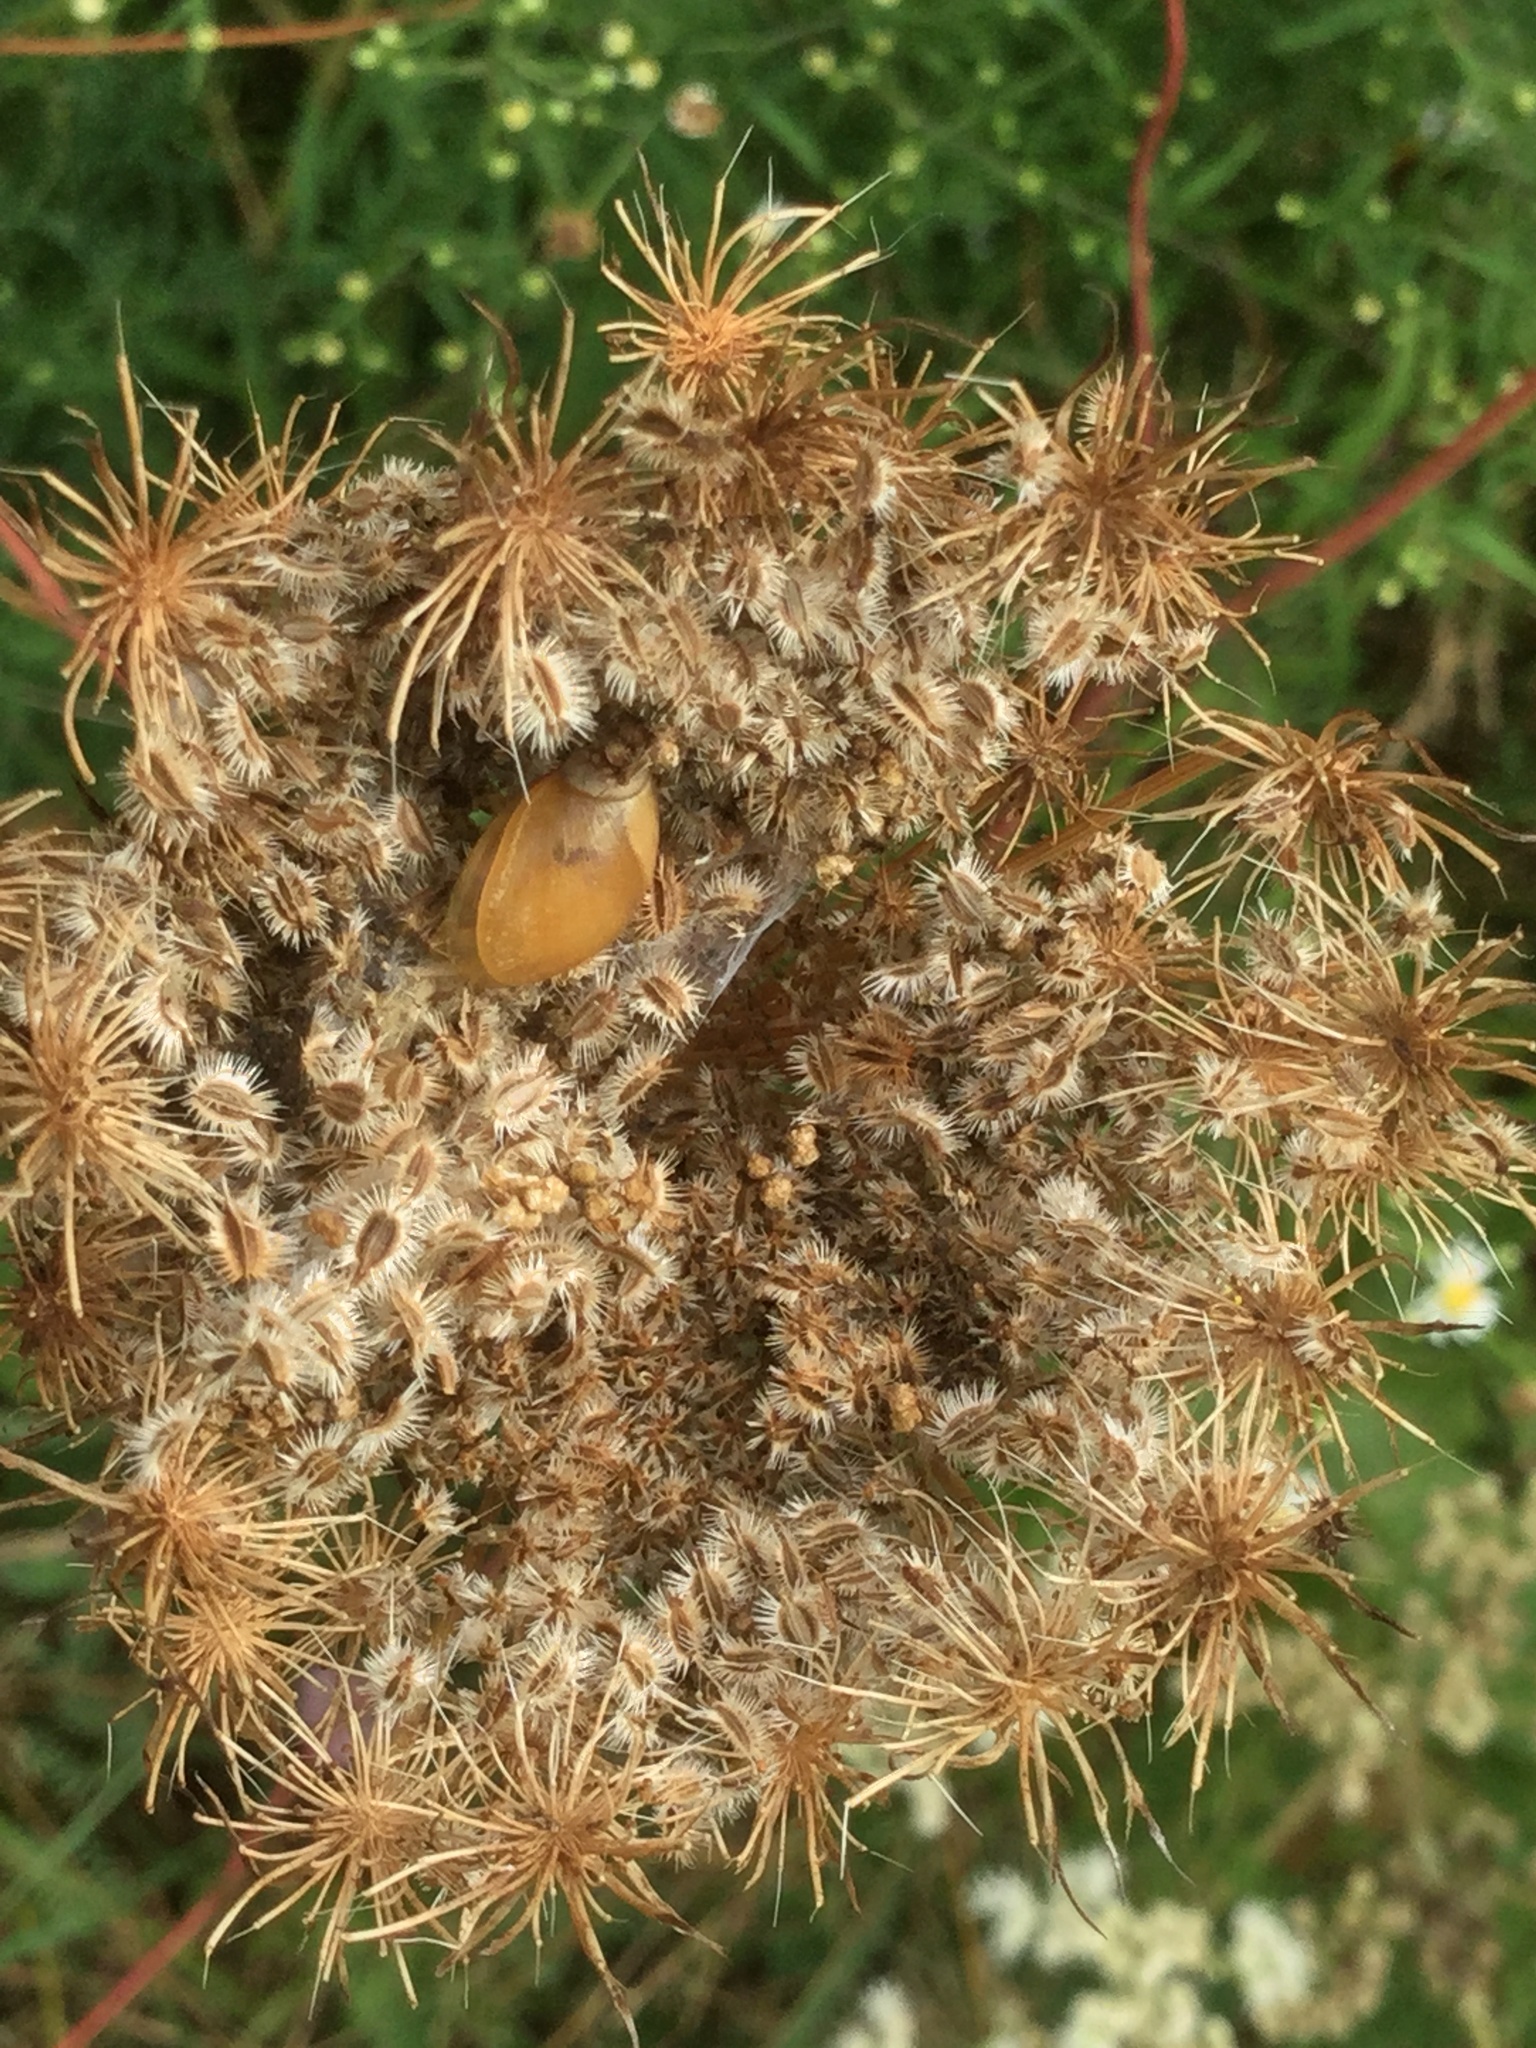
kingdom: Plantae
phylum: Tracheophyta
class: Magnoliopsida
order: Apiales
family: Apiaceae
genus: Daucus
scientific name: Daucus carota
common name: Wild carrot
